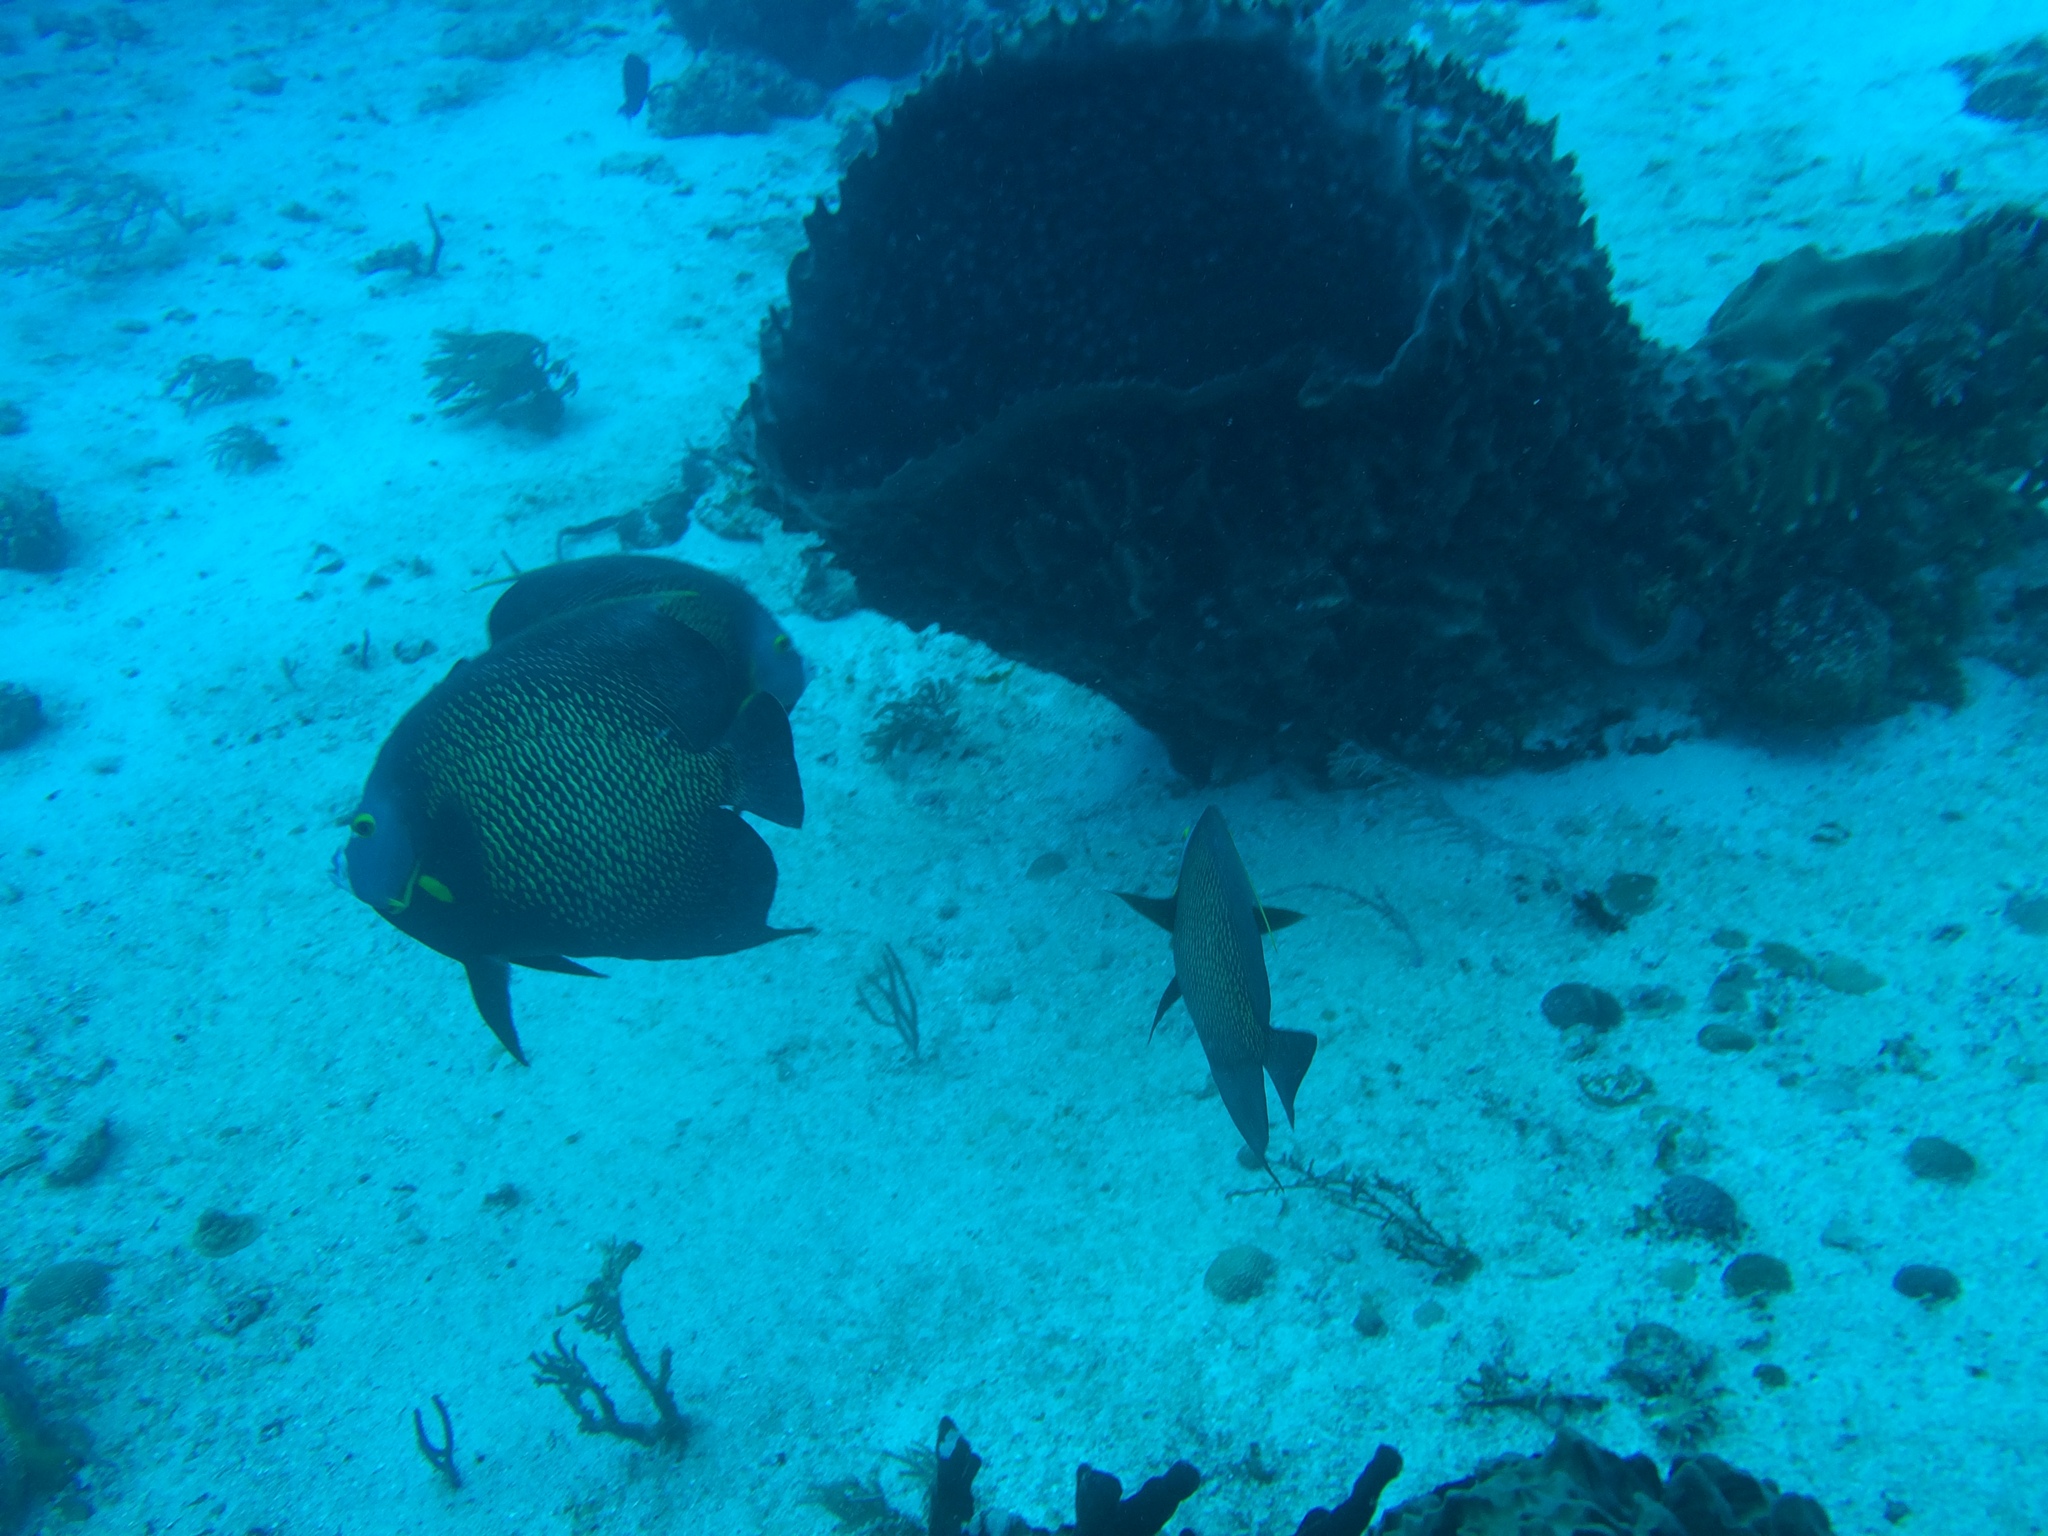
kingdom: Animalia
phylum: Chordata
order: Perciformes
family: Pomacanthidae
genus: Pomacanthus
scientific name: Pomacanthus paru
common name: French angelfish
